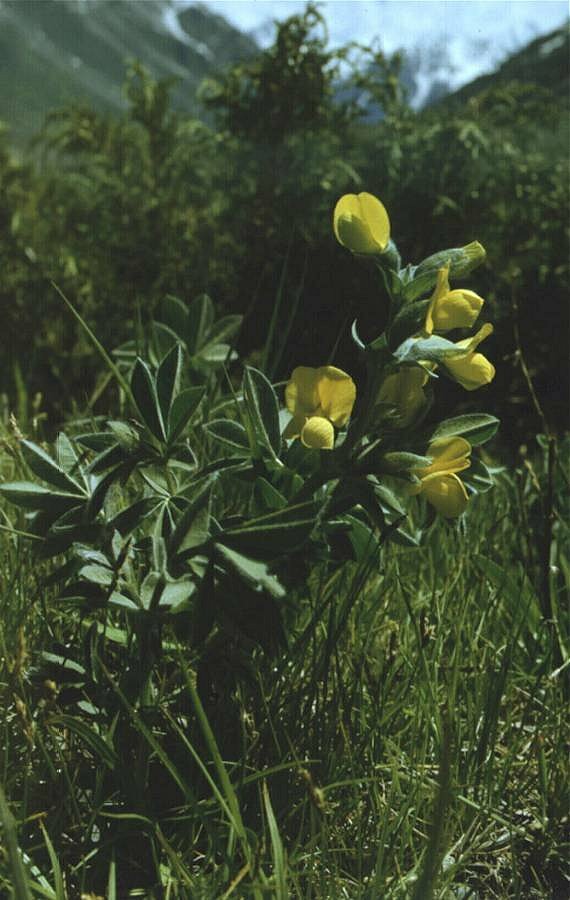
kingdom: Plantae
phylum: Tracheophyta
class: Magnoliopsida
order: Fabales
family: Fabaceae
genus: Thermopsis
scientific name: Thermopsis alpina
